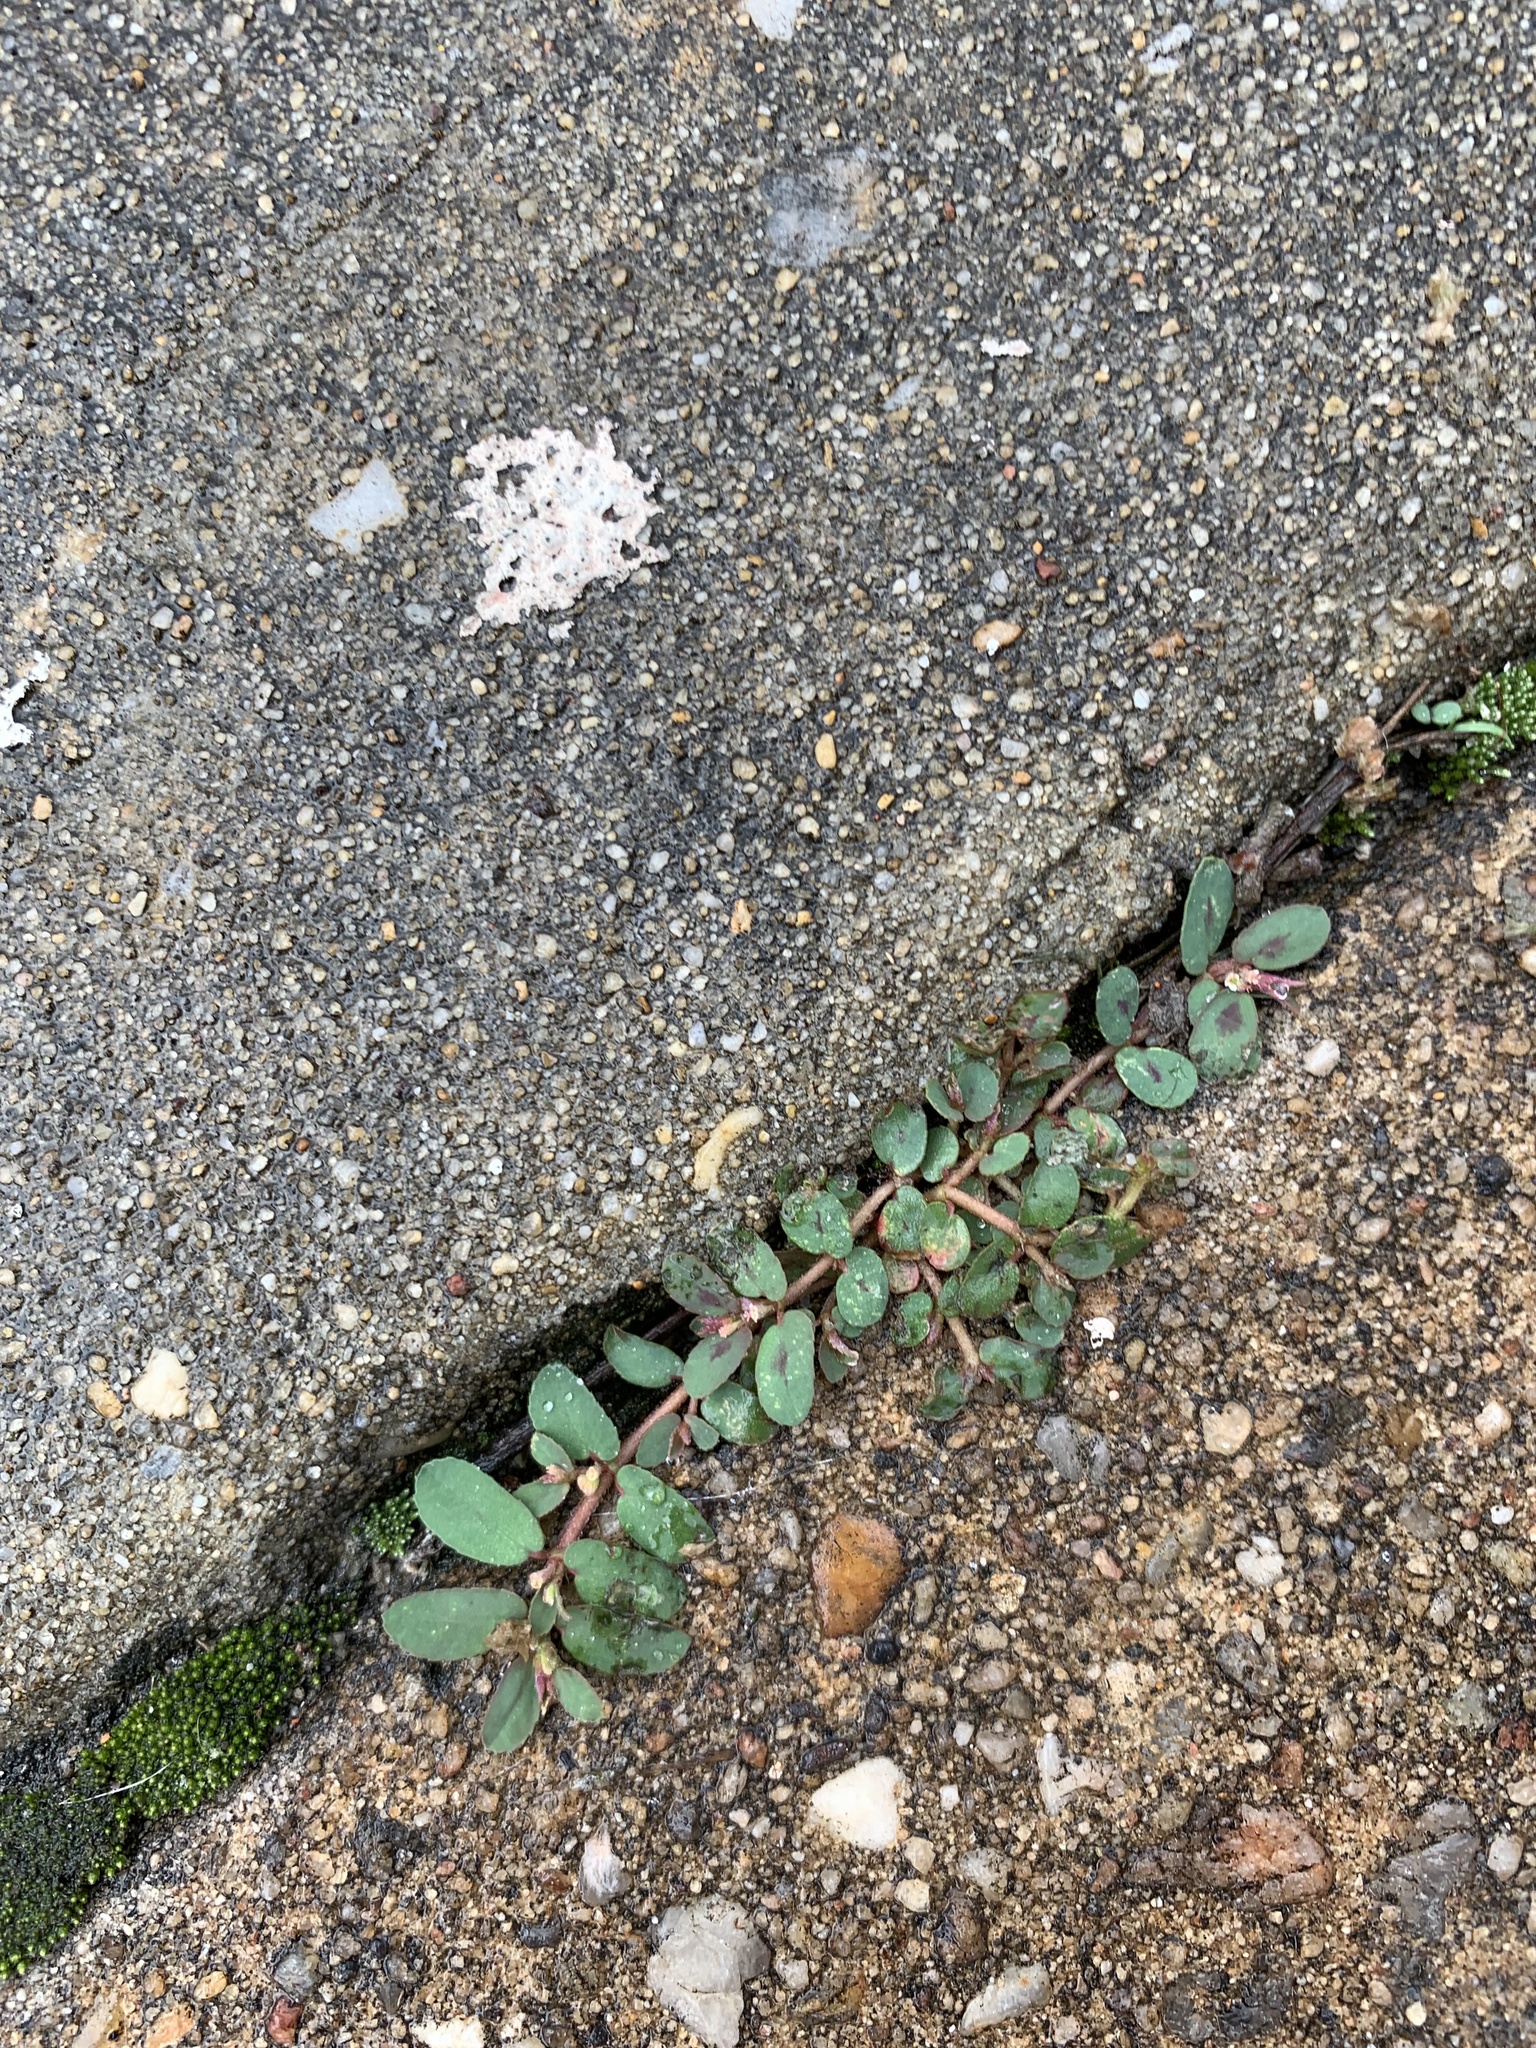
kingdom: Plantae
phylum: Tracheophyta
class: Magnoliopsida
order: Malpighiales
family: Euphorbiaceae
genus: Euphorbia
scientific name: Euphorbia maculata
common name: Spotted spurge
